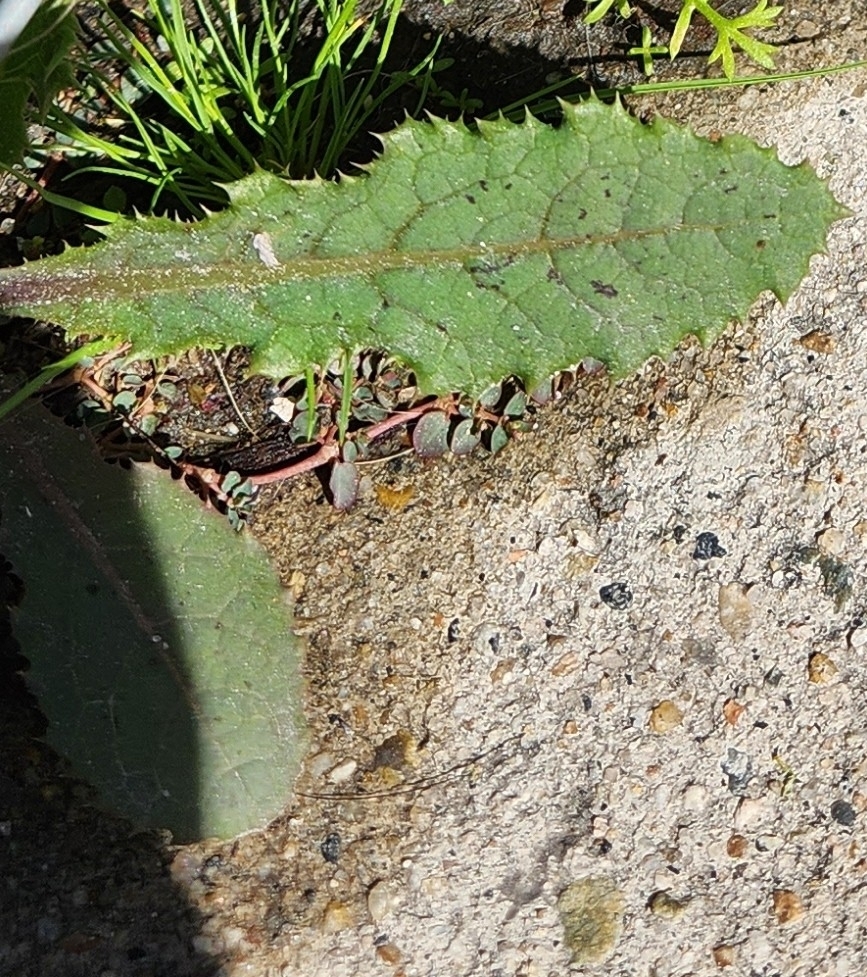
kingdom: Plantae
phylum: Tracheophyta
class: Magnoliopsida
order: Asterales
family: Asteraceae
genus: Sonchus
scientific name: Sonchus asper
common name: Prickly sow-thistle
